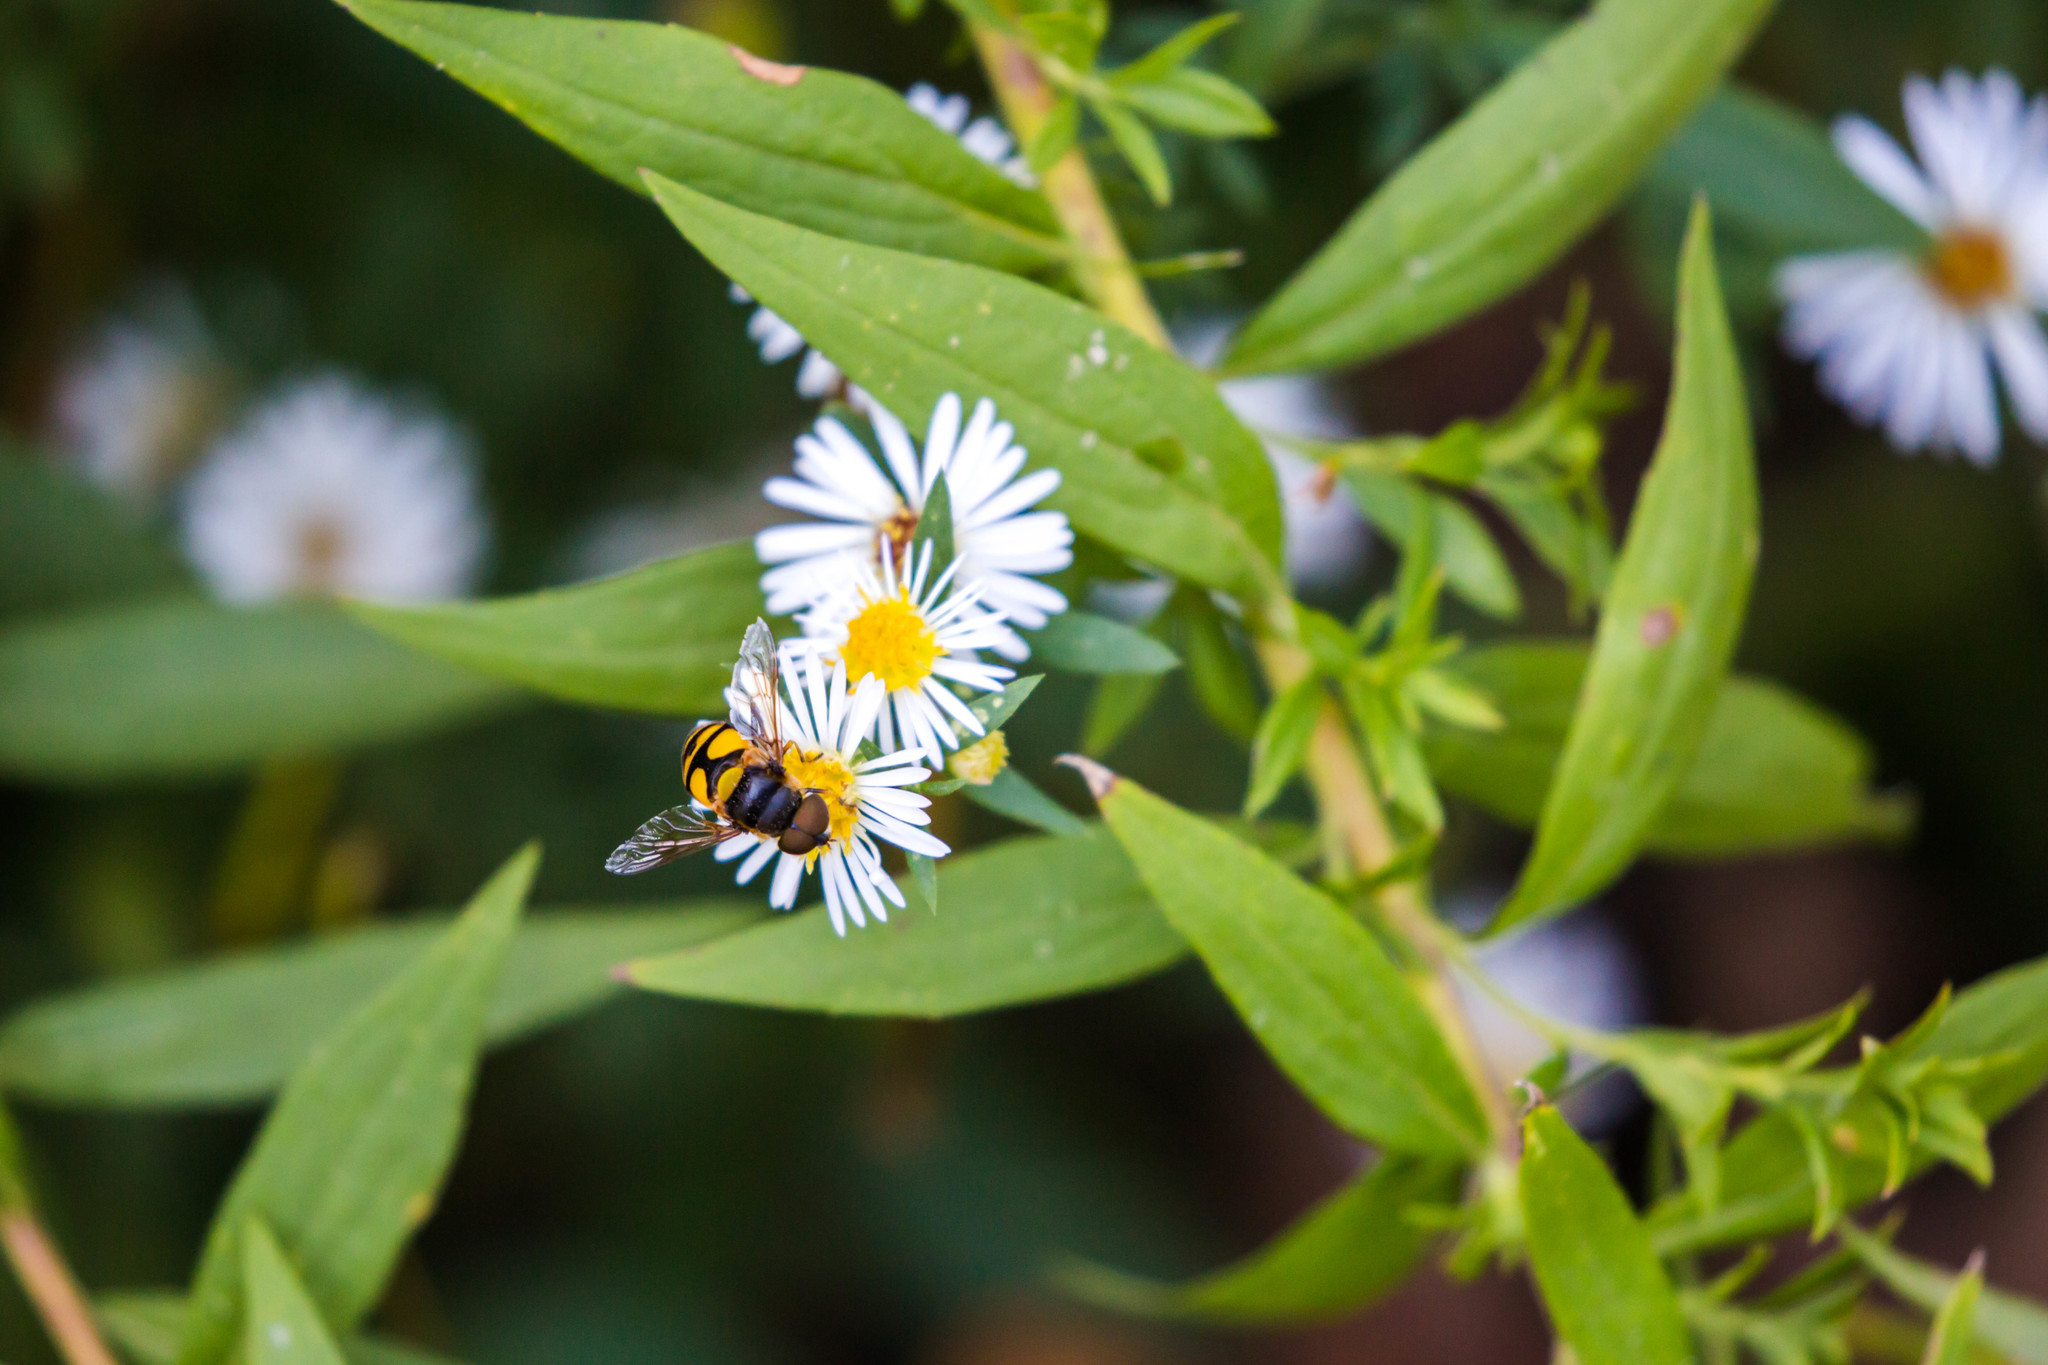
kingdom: Animalia
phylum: Arthropoda
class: Insecta
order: Diptera
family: Syrphidae
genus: Eristalis
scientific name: Eristalis transversa
